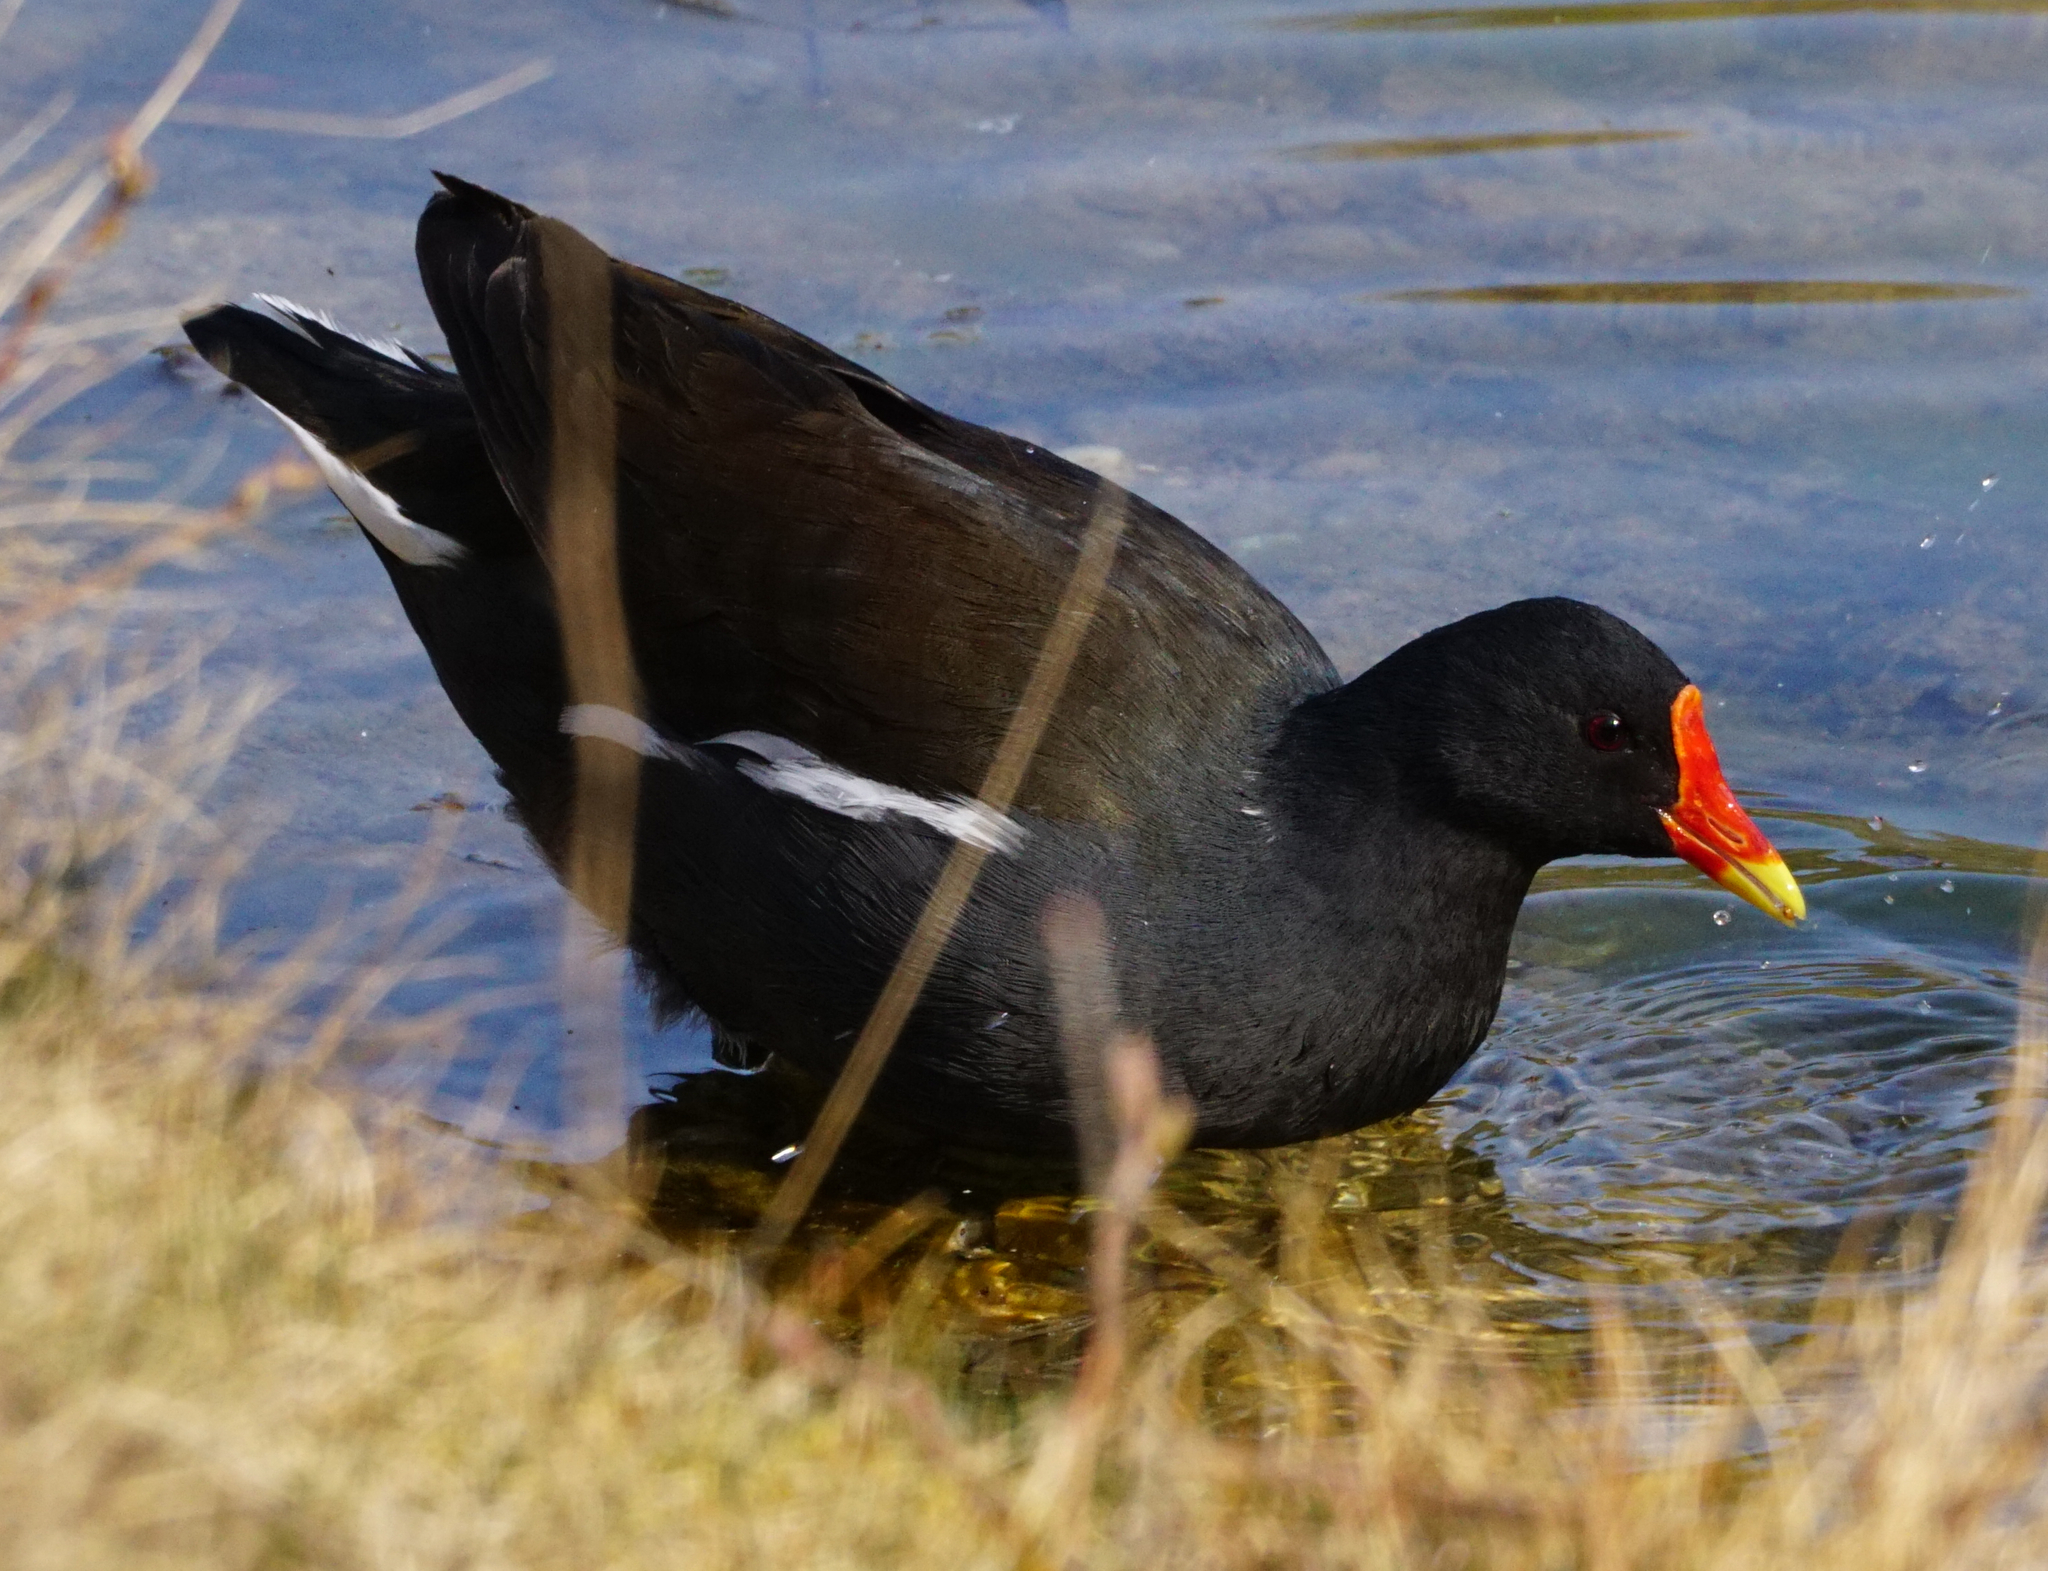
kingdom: Animalia
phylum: Chordata
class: Aves
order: Gruiformes
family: Rallidae
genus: Gallinula
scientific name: Gallinula chloropus
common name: Common moorhen
